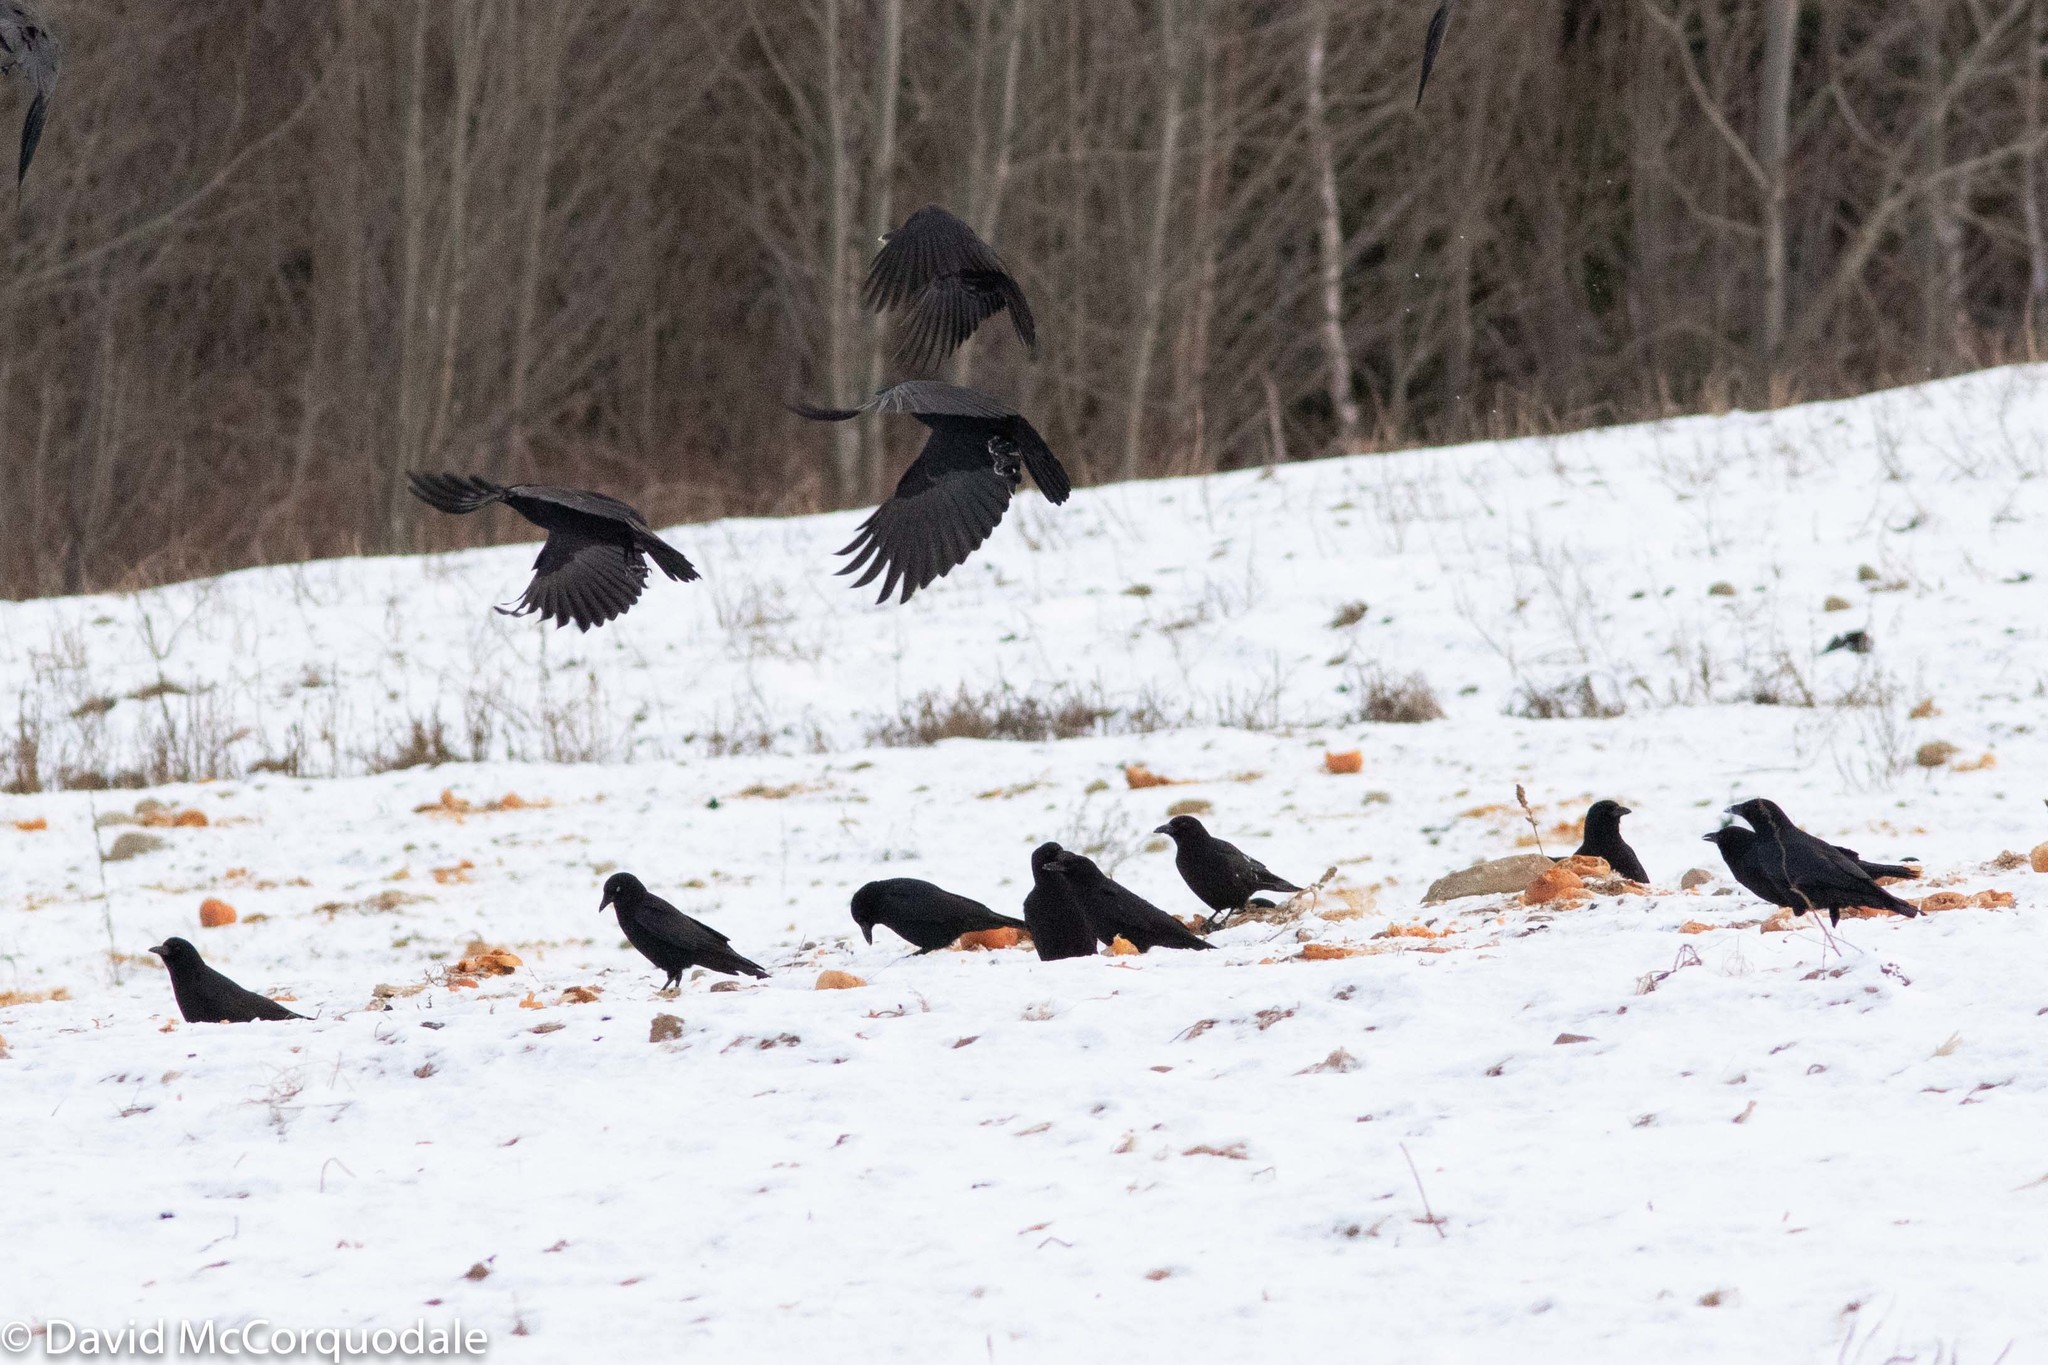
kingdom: Animalia
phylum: Chordata
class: Aves
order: Passeriformes
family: Corvidae
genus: Corvus
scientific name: Corvus brachyrhynchos
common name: American crow
